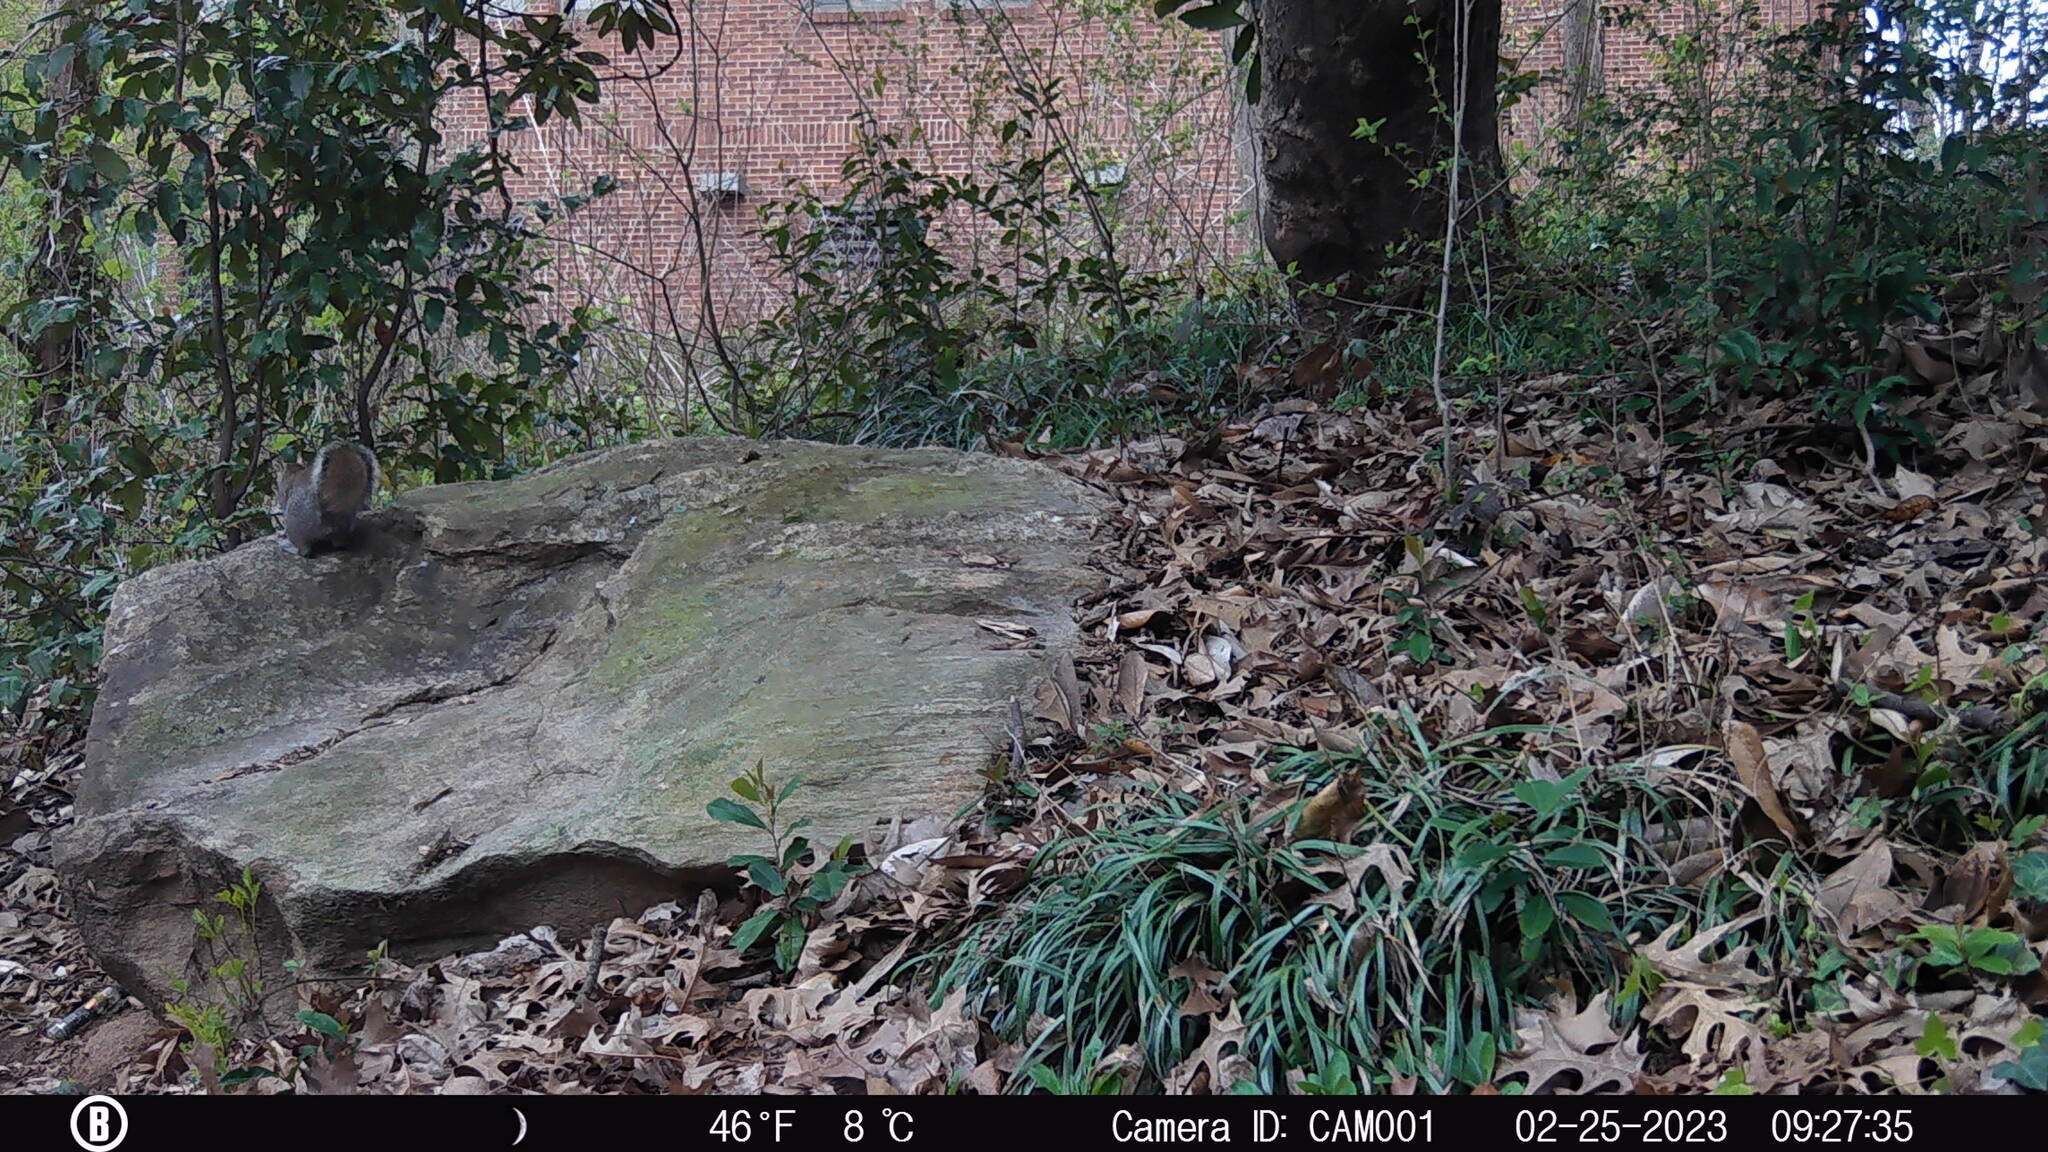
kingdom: Animalia
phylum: Chordata
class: Mammalia
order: Rodentia
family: Sciuridae
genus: Sciurus
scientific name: Sciurus carolinensis
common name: Eastern gray squirrel
